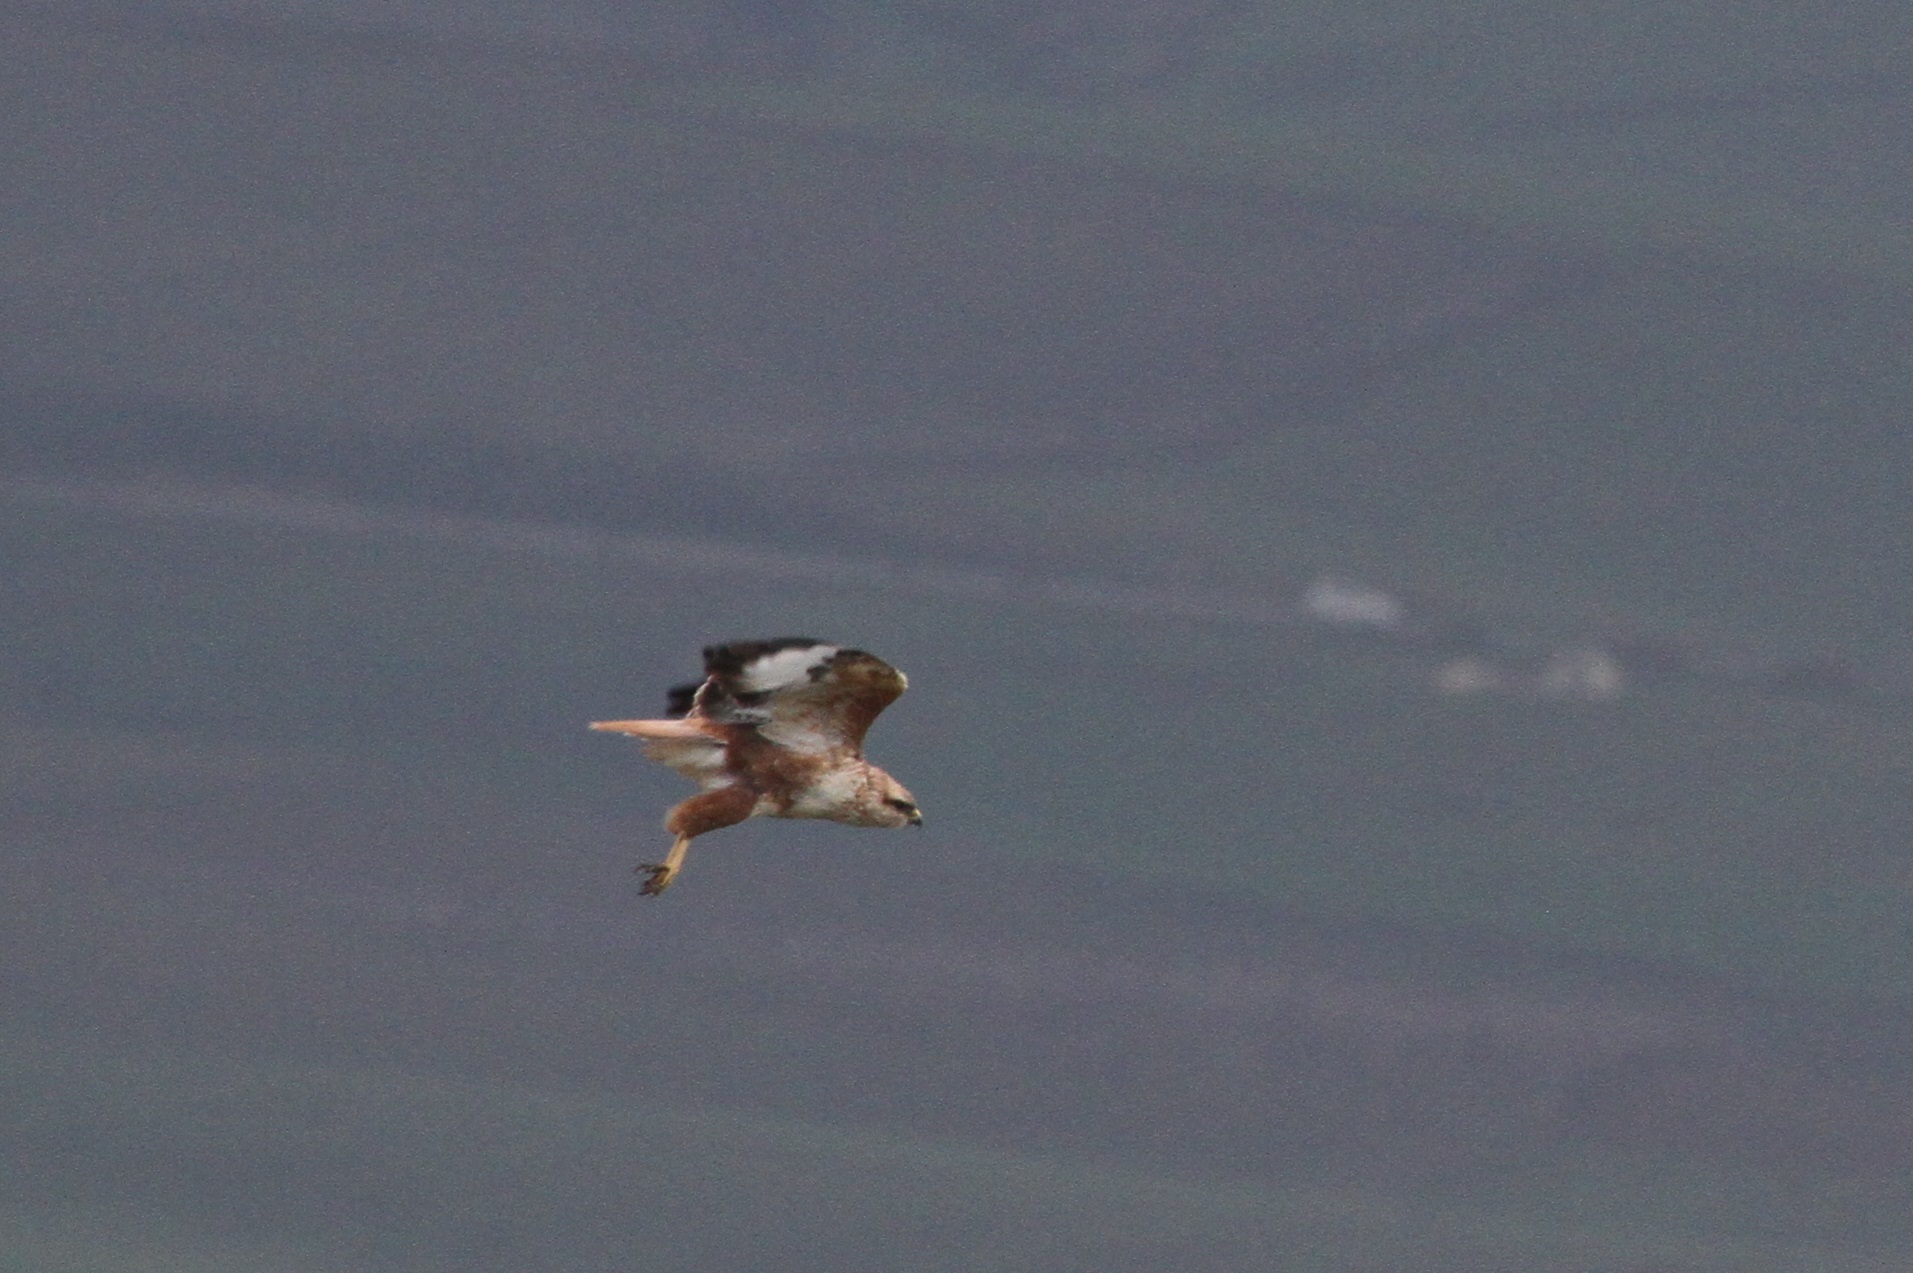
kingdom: Animalia
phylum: Chordata
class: Aves
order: Accipitriformes
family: Accipitridae
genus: Buteo
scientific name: Buteo rufinus
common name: Long-legged buzzard
